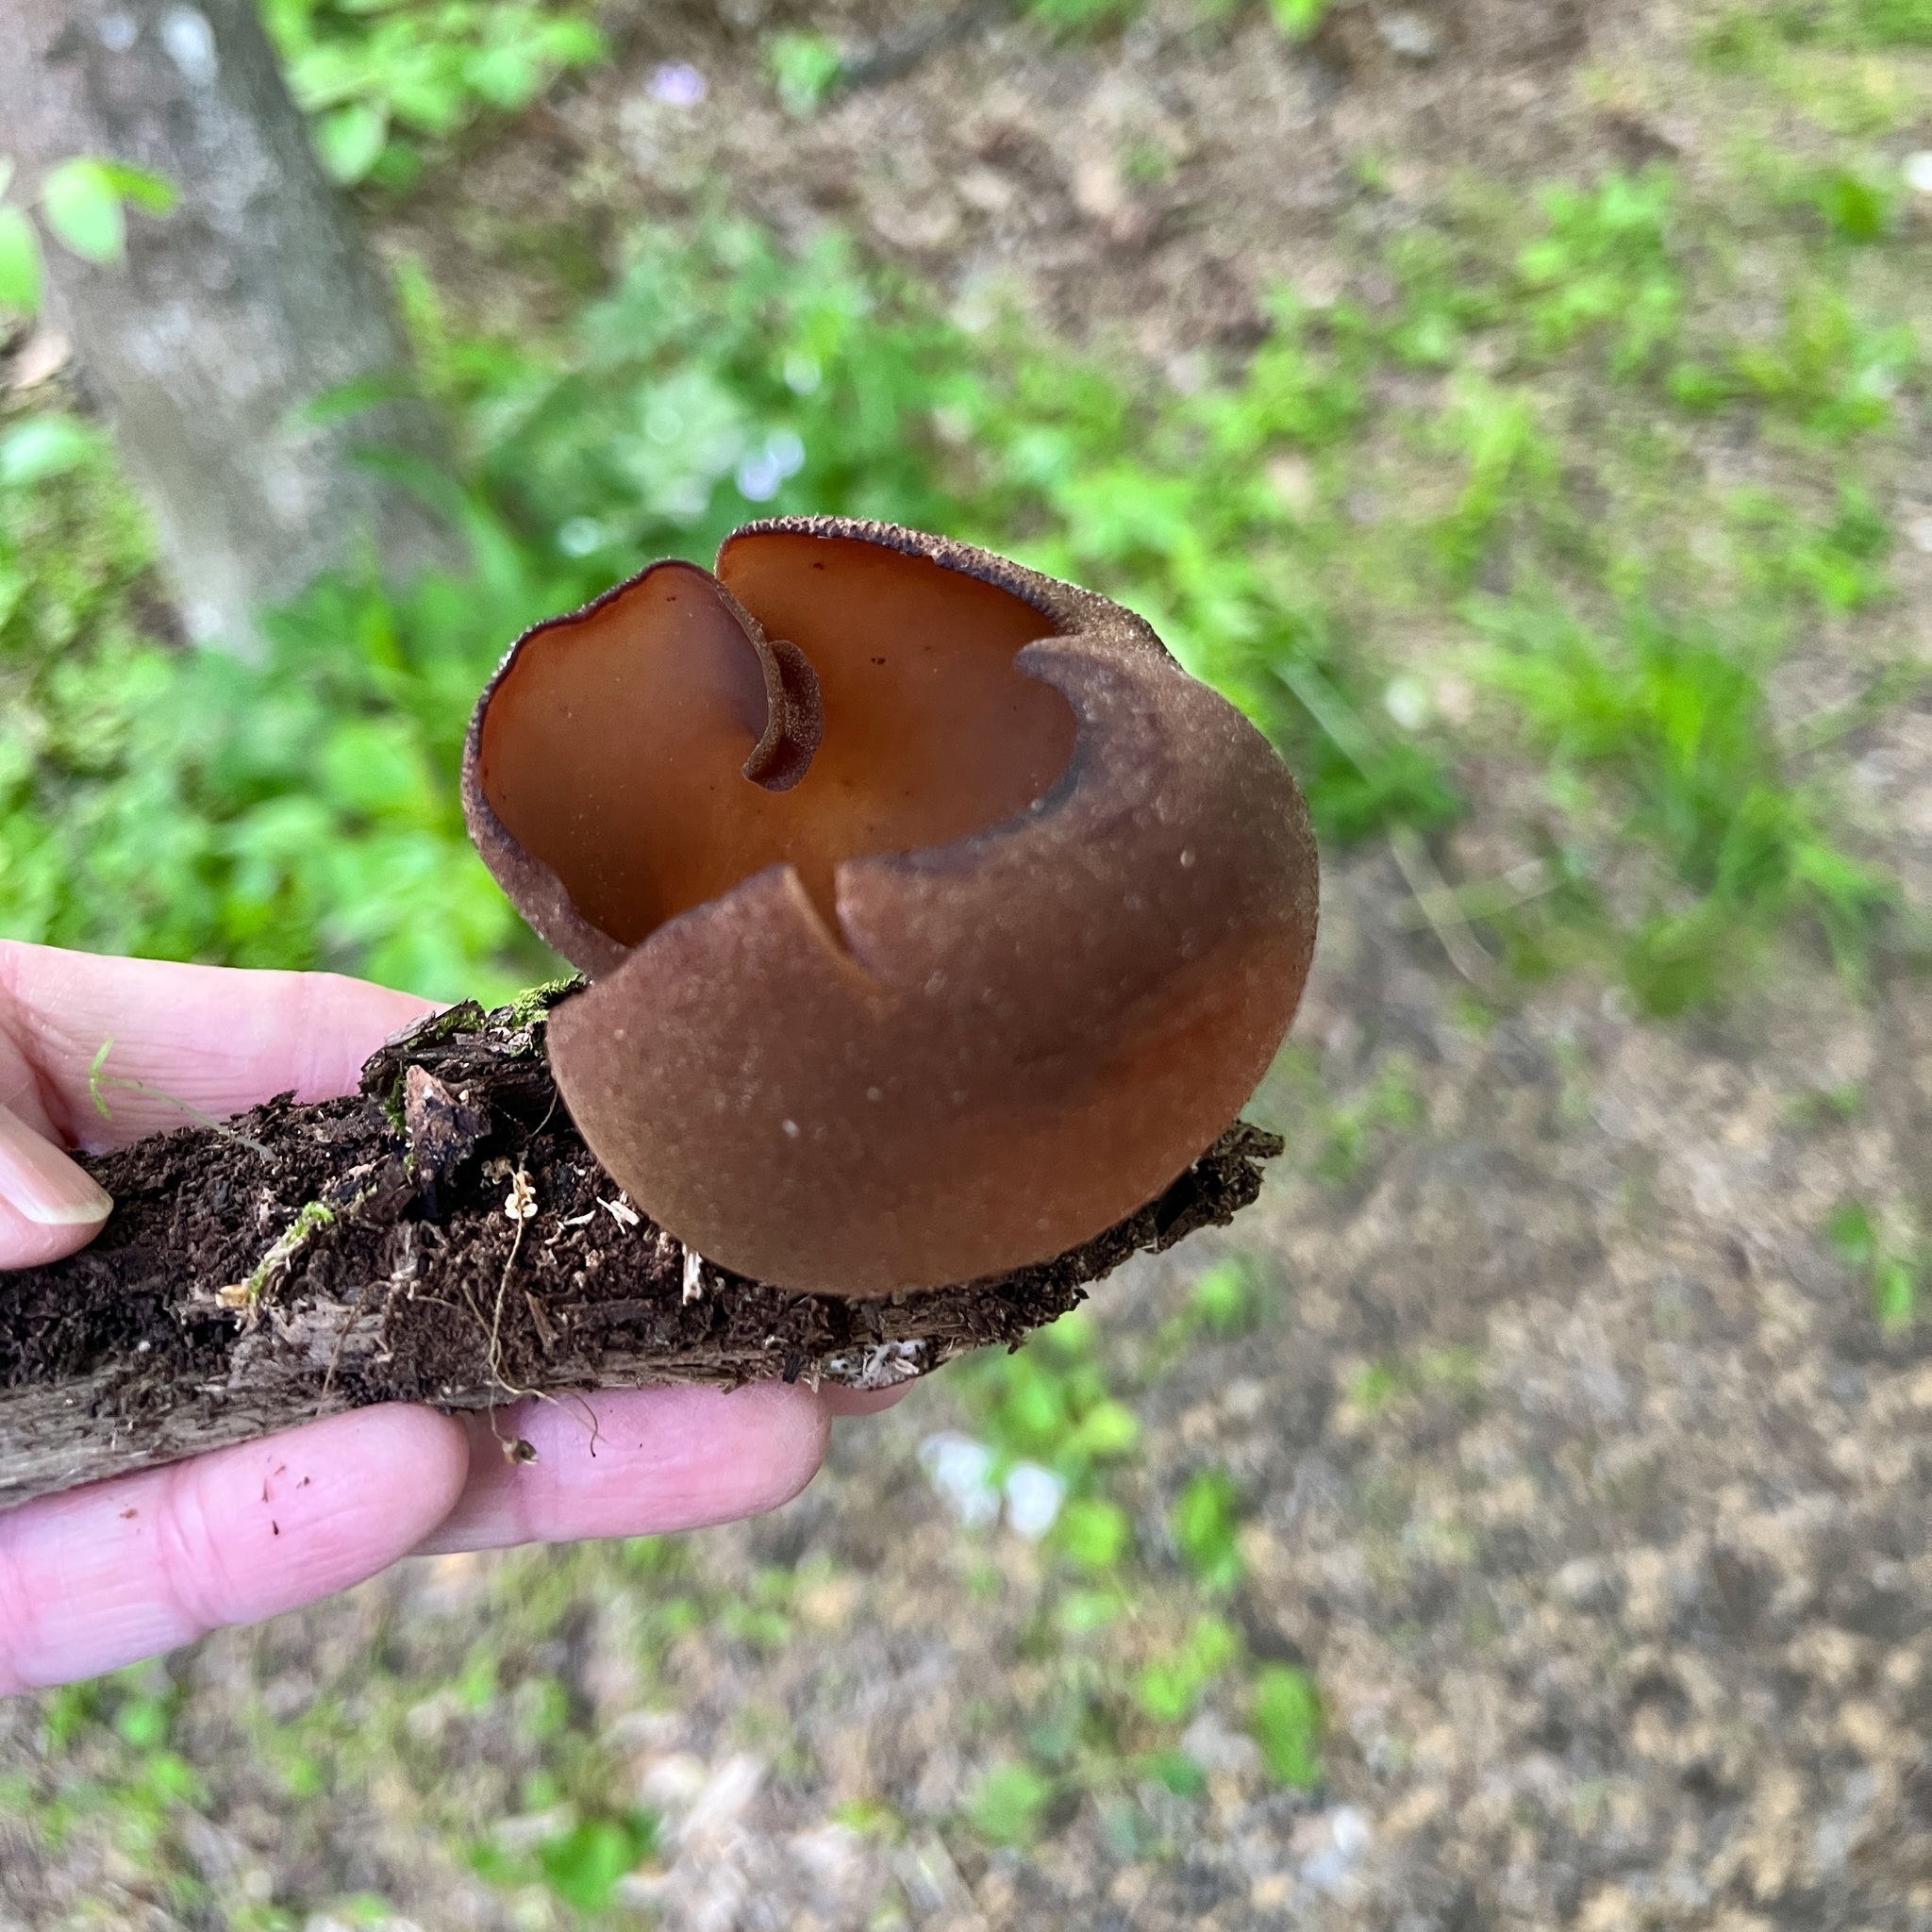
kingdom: Fungi
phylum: Ascomycota
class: Pezizomycetes
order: Pezizales
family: Pezizaceae
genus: Phylloscypha
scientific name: Phylloscypha phyllogena
